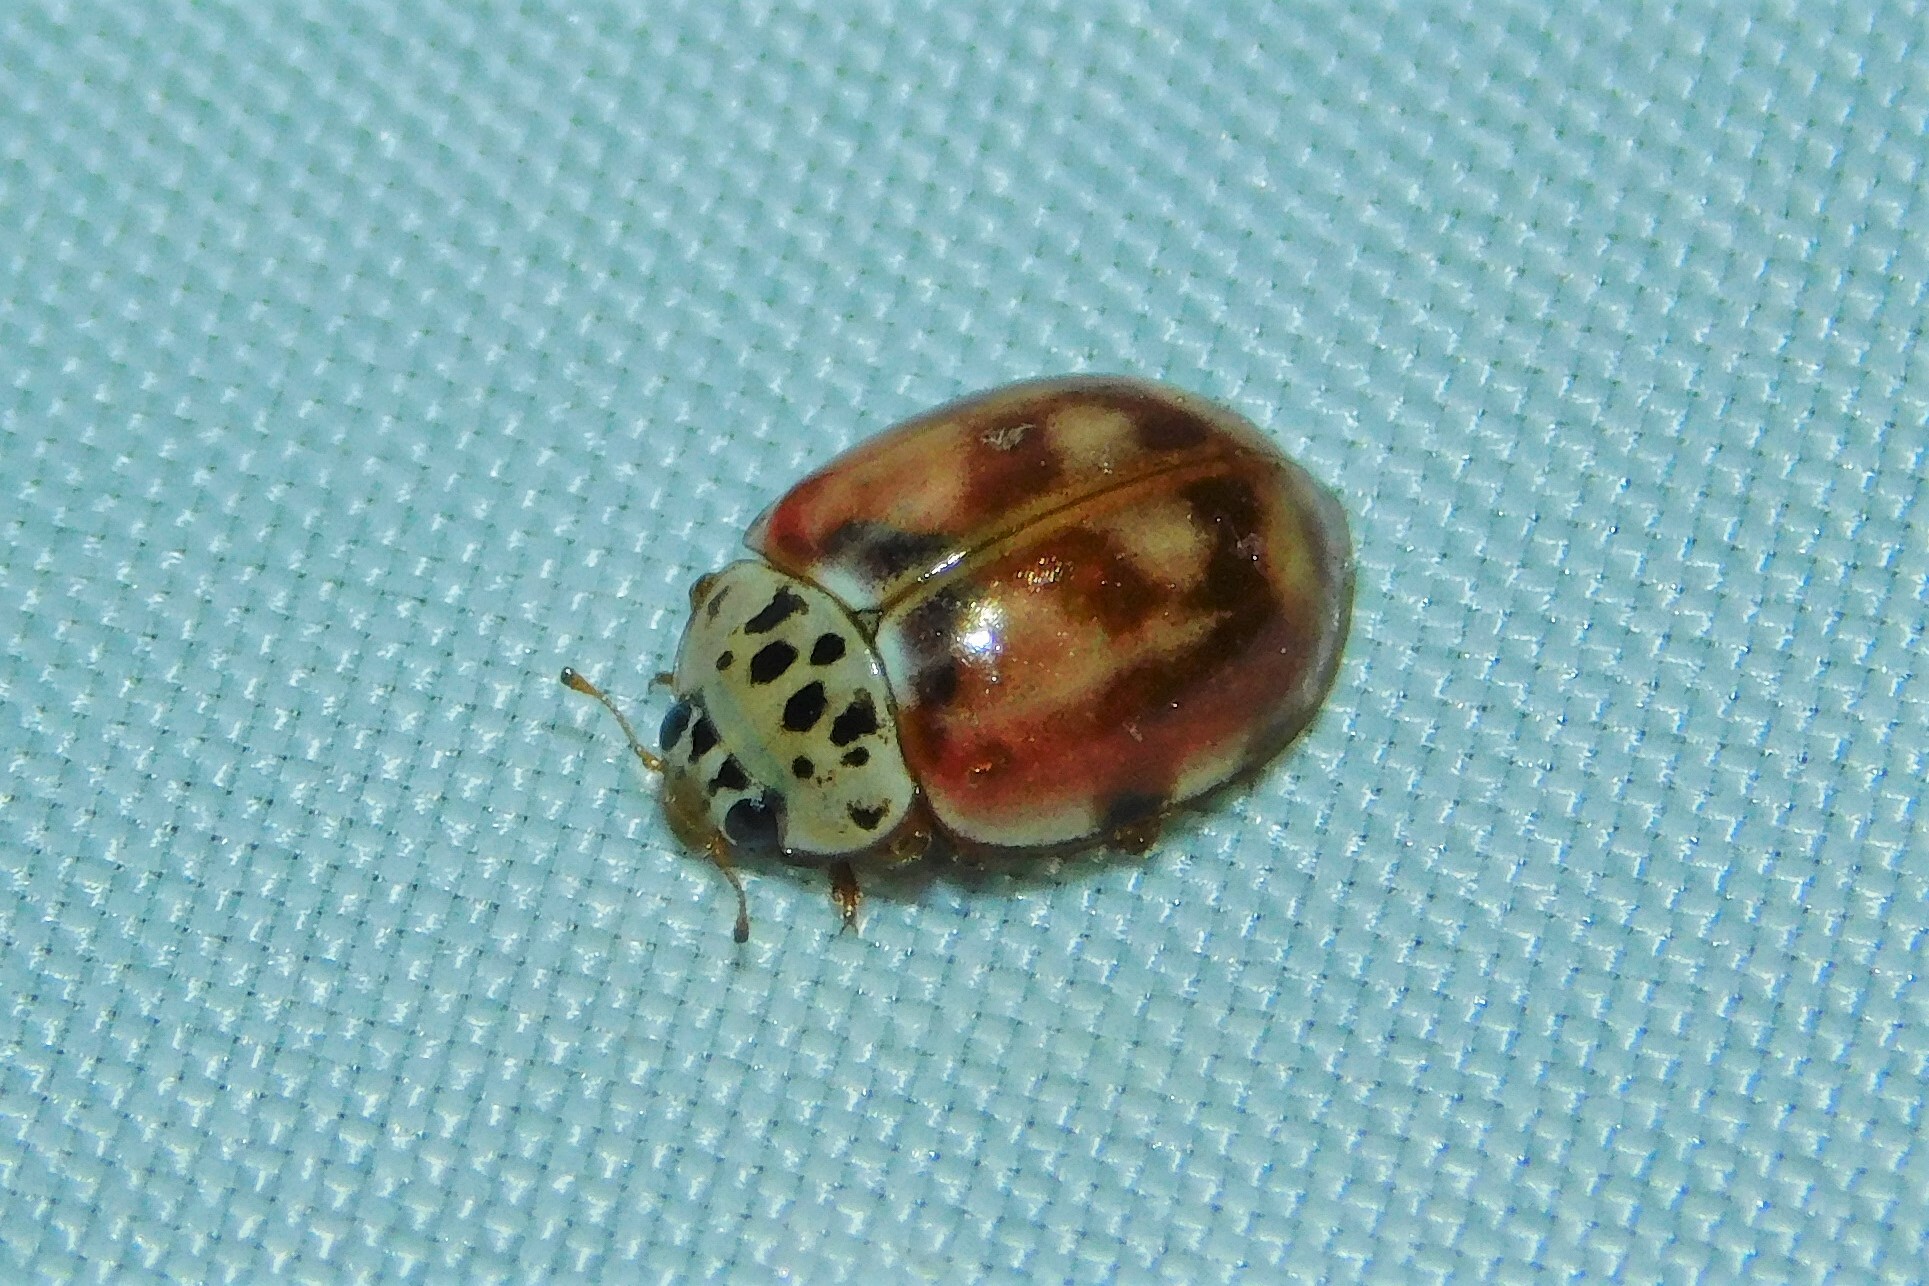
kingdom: Animalia
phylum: Arthropoda
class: Insecta
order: Coleoptera
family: Coccinellidae
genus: Harmonia
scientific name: Harmonia quadripunctata
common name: Cream-streaked ladybird
